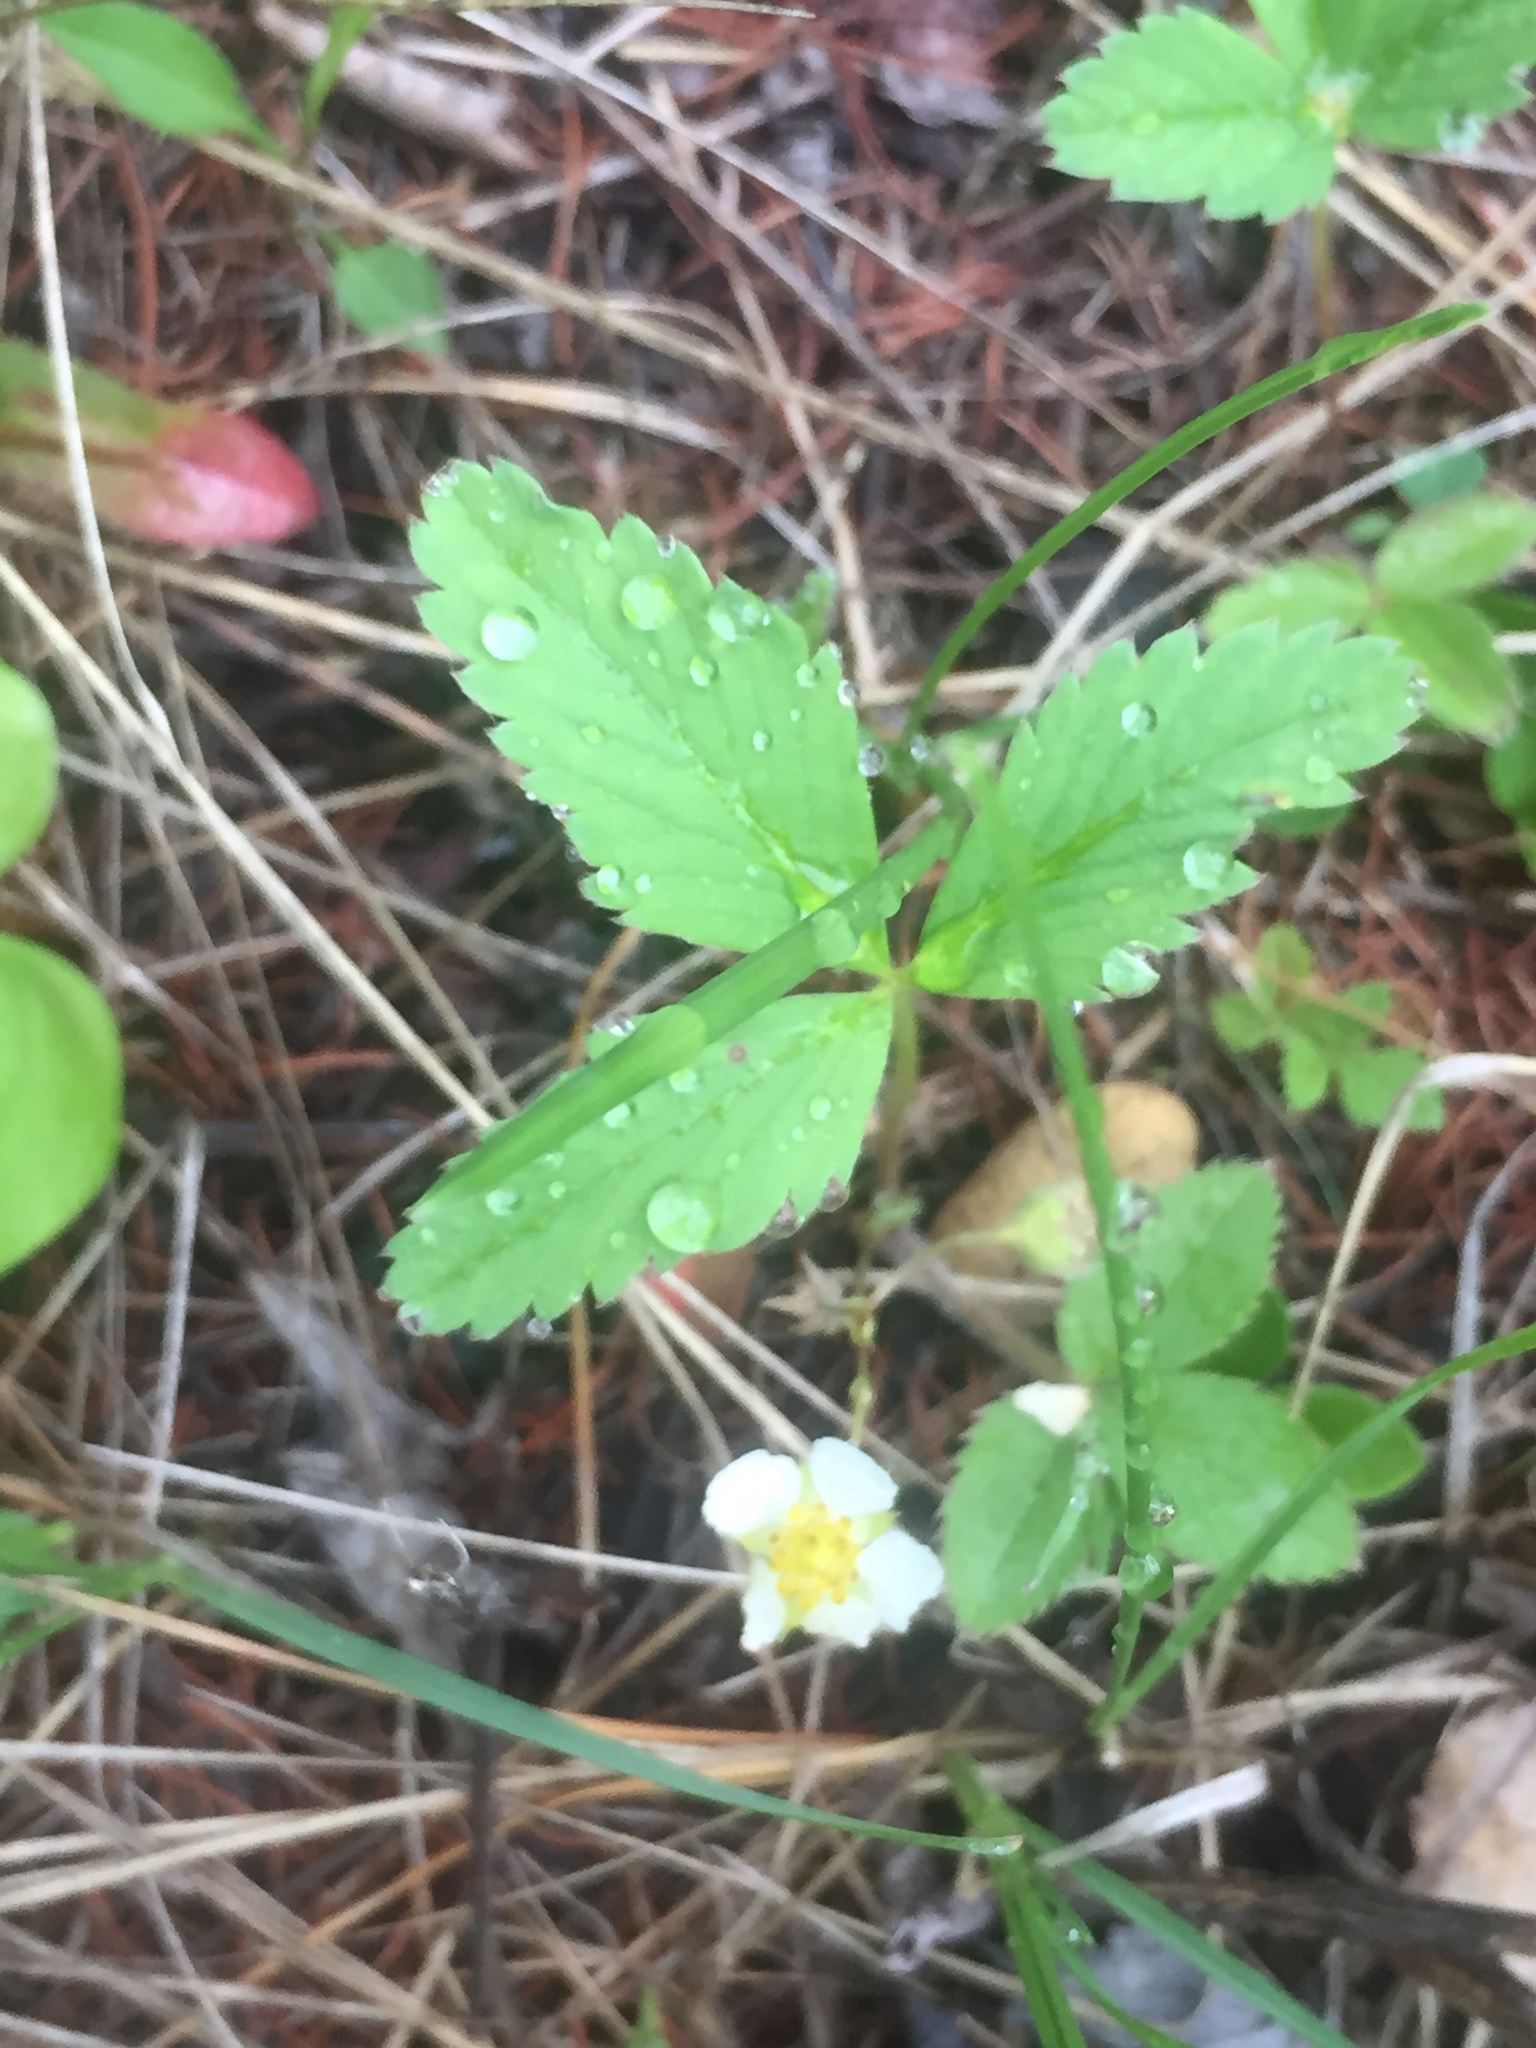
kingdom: Plantae
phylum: Tracheophyta
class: Magnoliopsida
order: Rosales
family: Rosaceae
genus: Fragaria
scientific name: Fragaria virginiana
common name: Thickleaved wild strawberry
